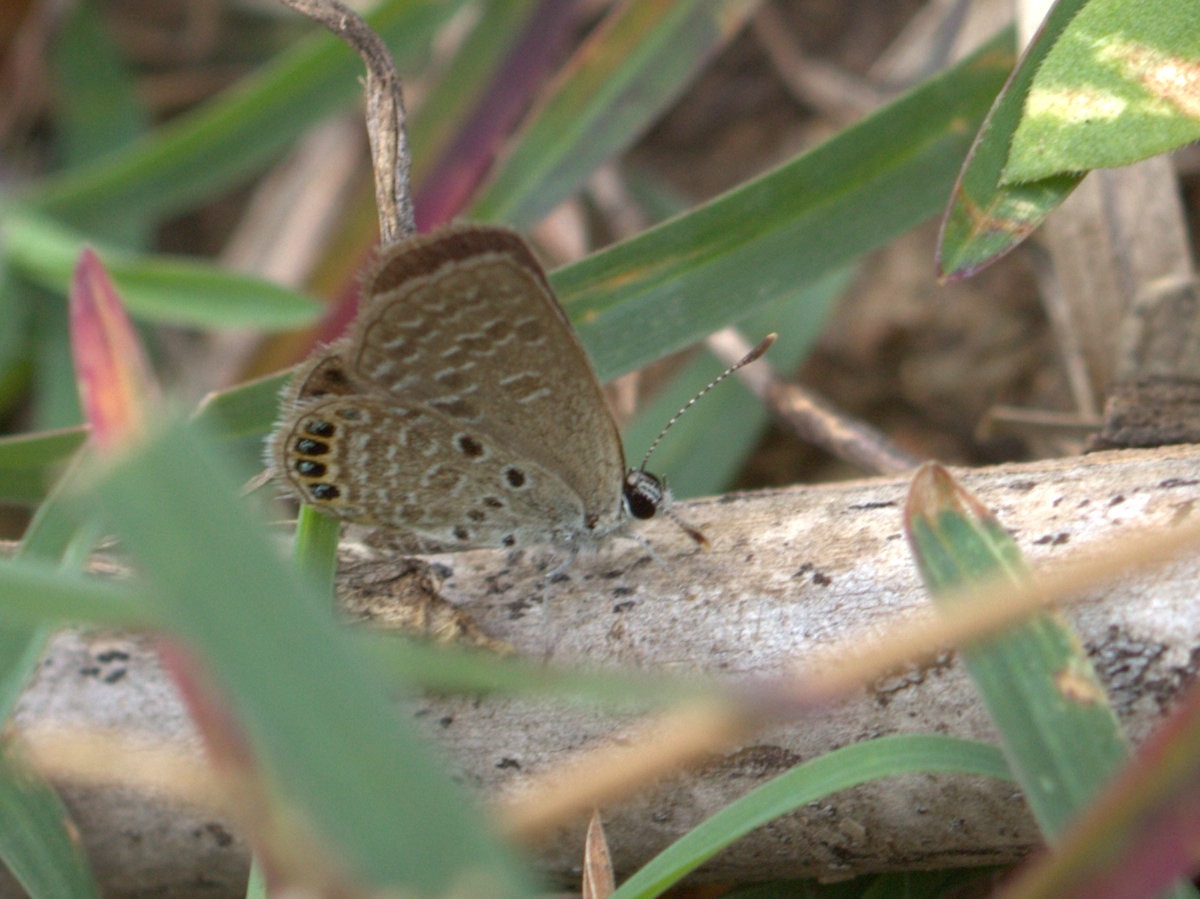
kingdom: Animalia
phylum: Arthropoda
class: Insecta
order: Lepidoptera
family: Lycaenidae
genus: Freyeria
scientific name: Freyeria putli
